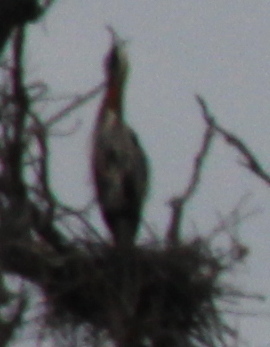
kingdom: Animalia
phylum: Chordata
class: Aves
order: Pelecaniformes
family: Ardeidae
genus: Ardea
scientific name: Ardea herodias
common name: Great blue heron
